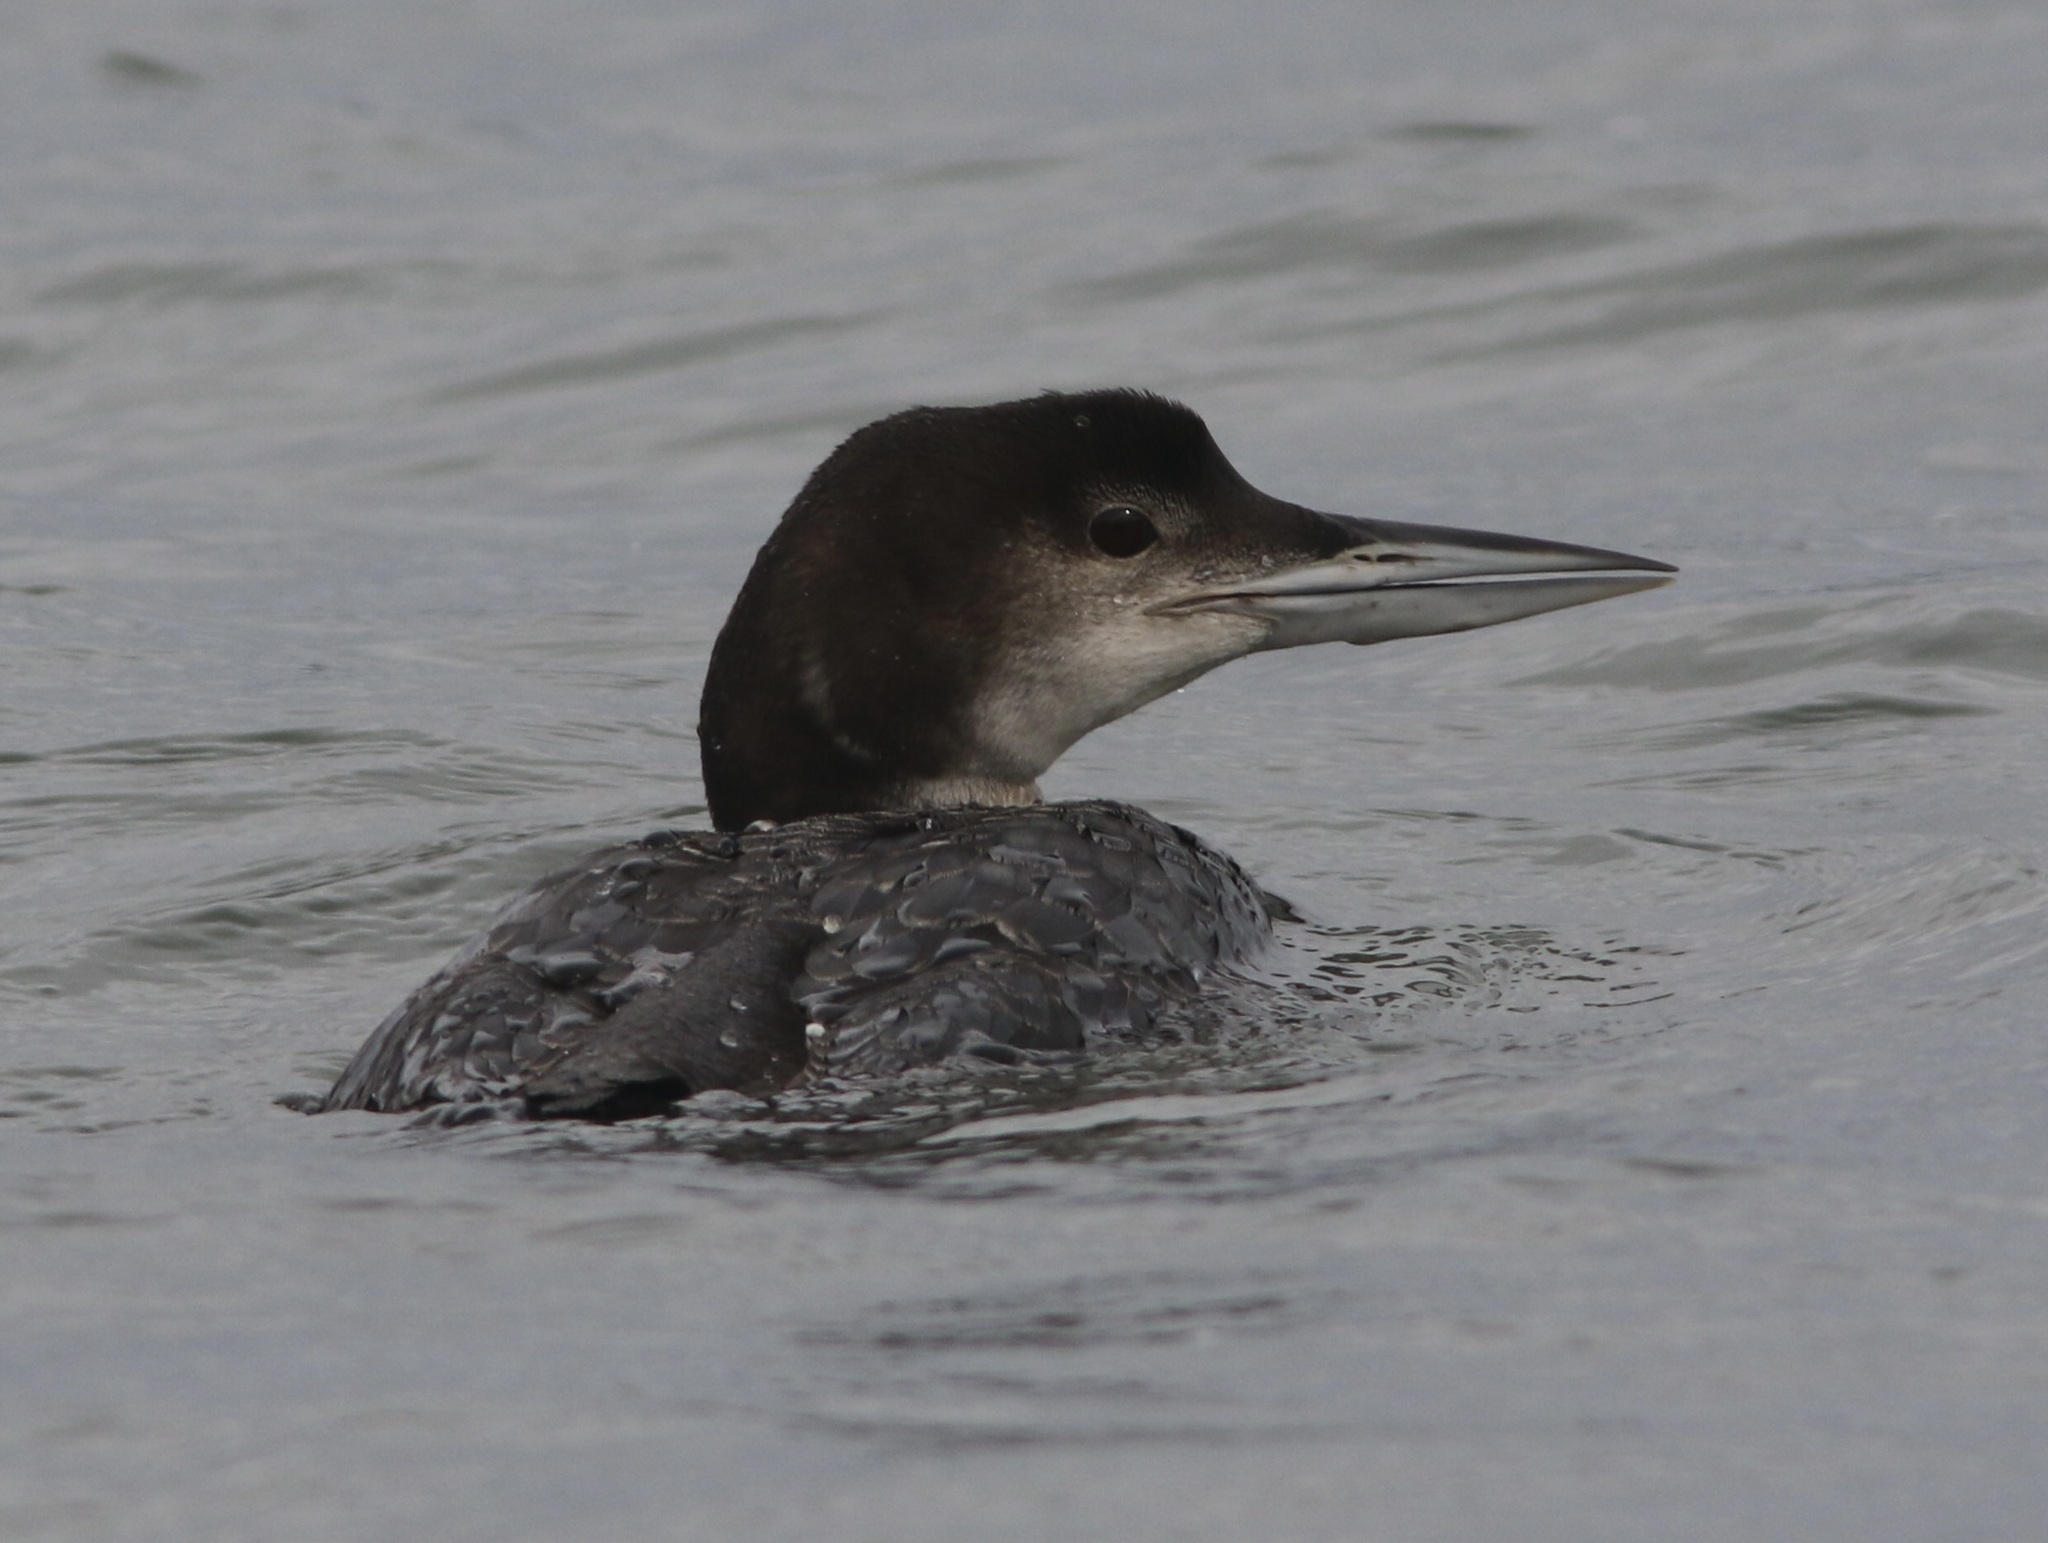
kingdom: Animalia
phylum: Chordata
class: Aves
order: Gaviiformes
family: Gaviidae
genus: Gavia
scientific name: Gavia immer
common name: Common loon
